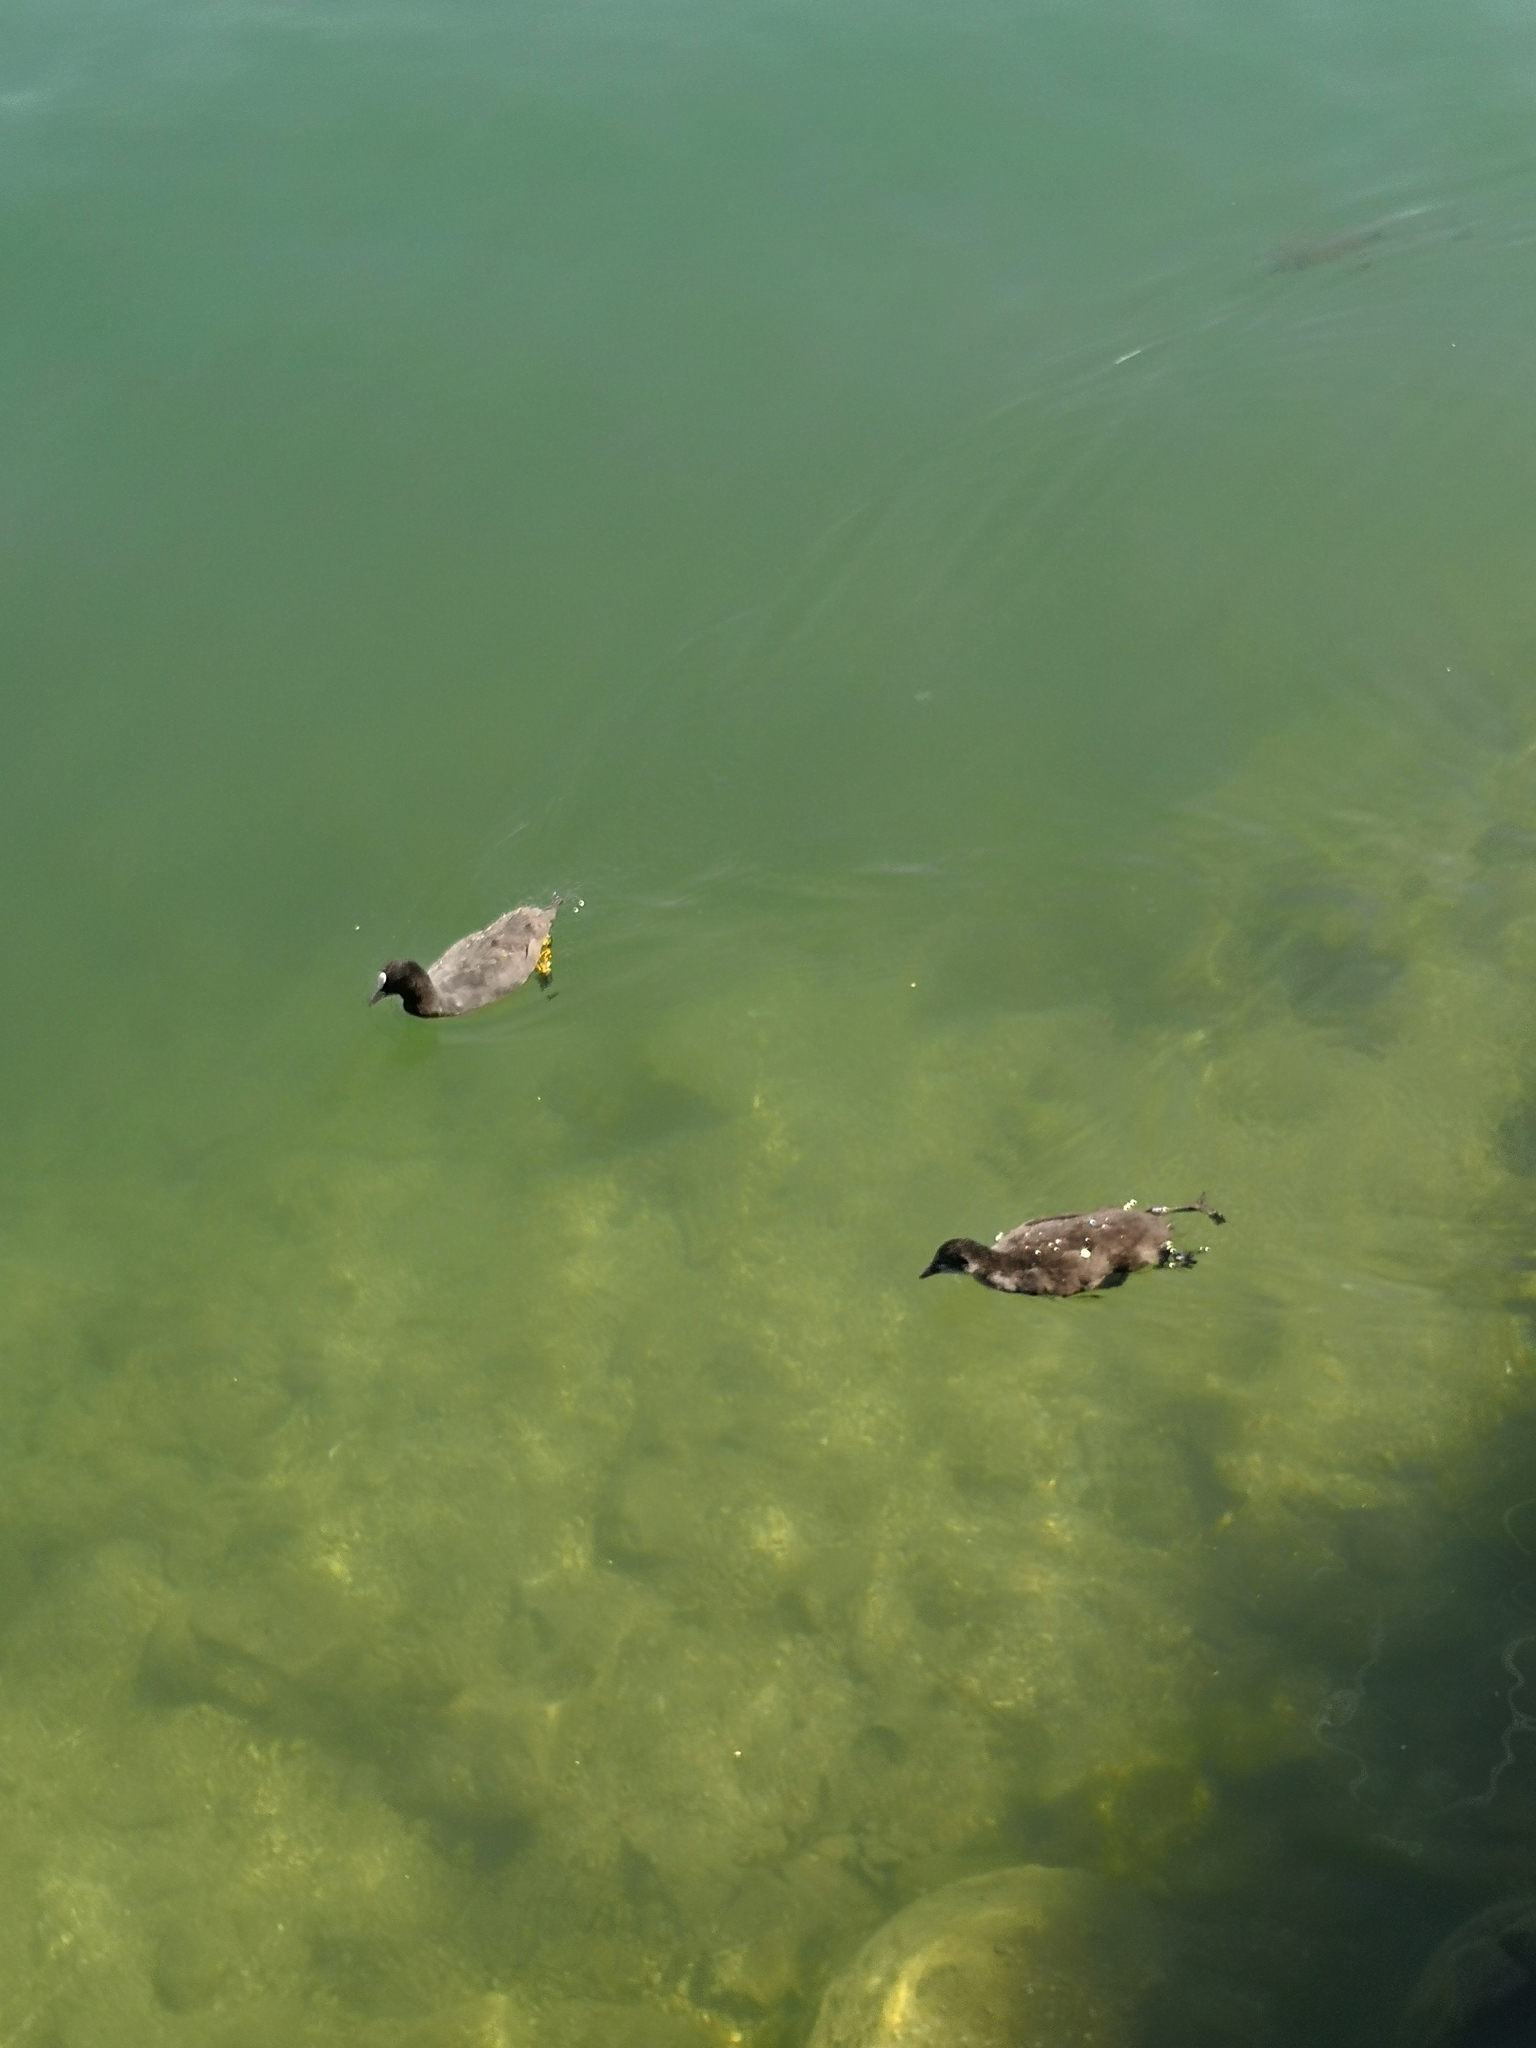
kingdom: Animalia
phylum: Chordata
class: Aves
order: Gruiformes
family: Rallidae
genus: Fulica
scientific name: Fulica atra
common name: Eurasian coot
